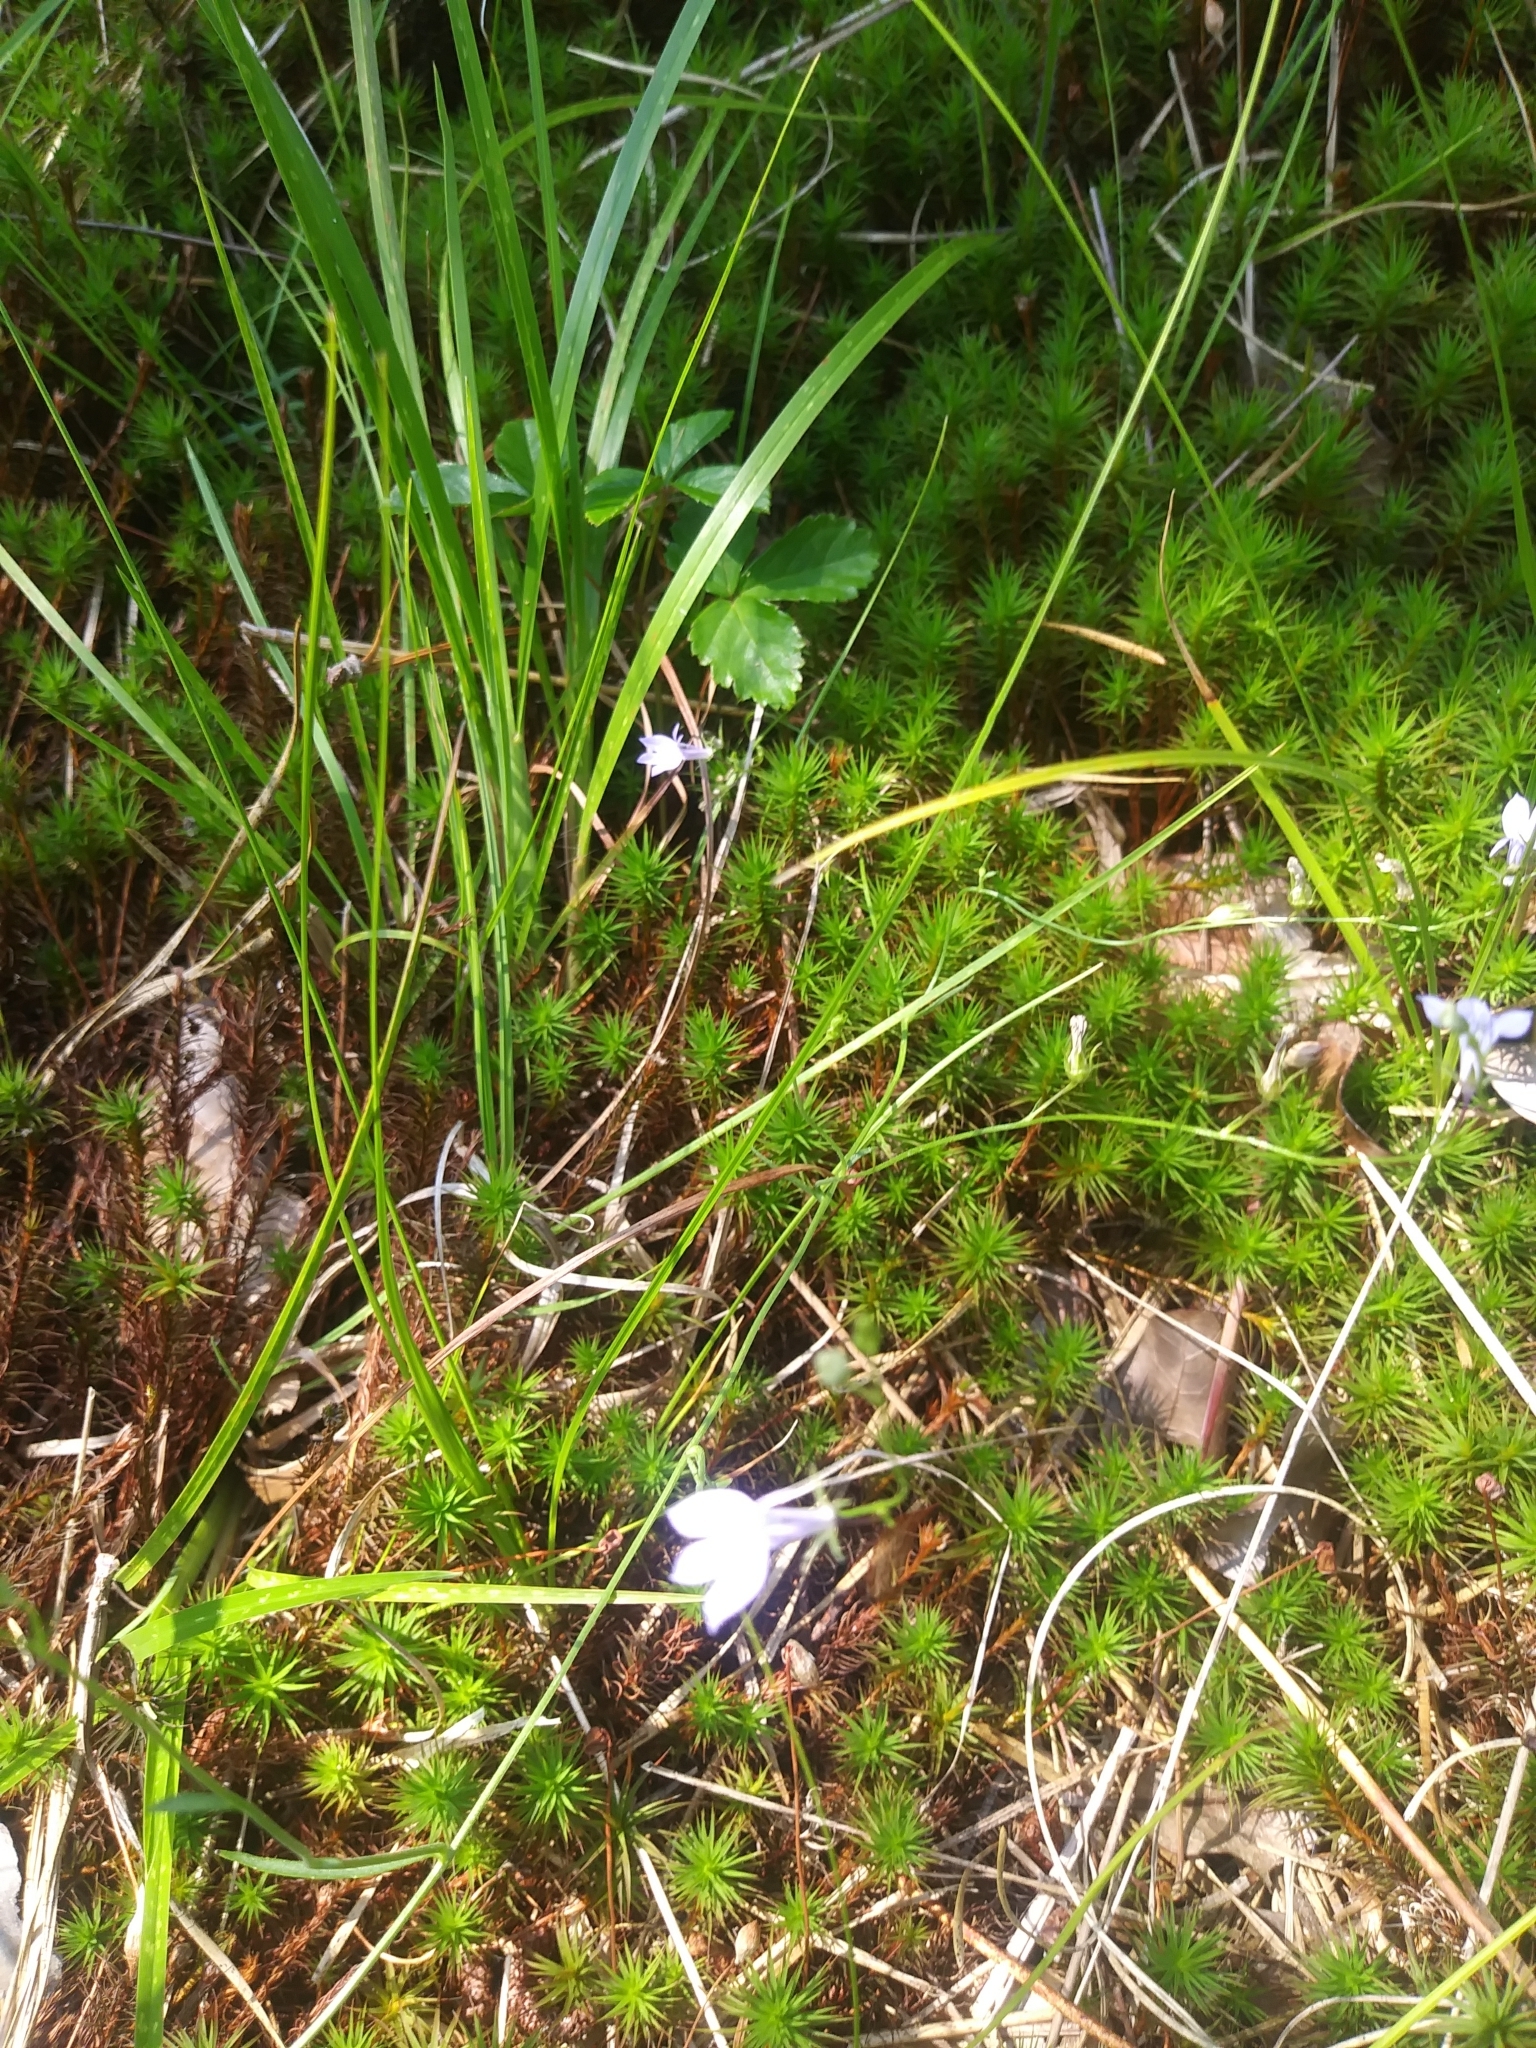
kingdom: Plantae
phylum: Tracheophyta
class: Magnoliopsida
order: Asterales
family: Campanulaceae
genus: Lobelia
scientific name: Lobelia nuttallii
